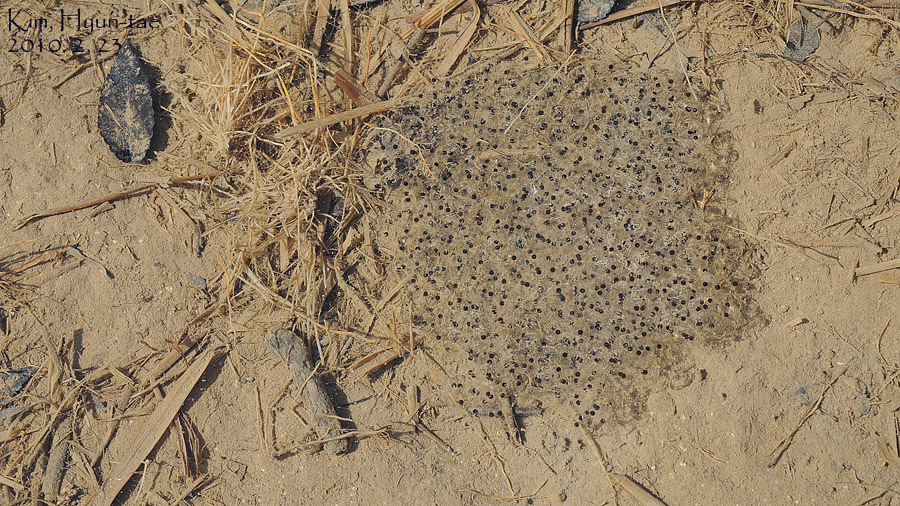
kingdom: Animalia
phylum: Chordata
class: Amphibia
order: Anura
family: Ranidae
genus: Rana
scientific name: Rana uenoi
